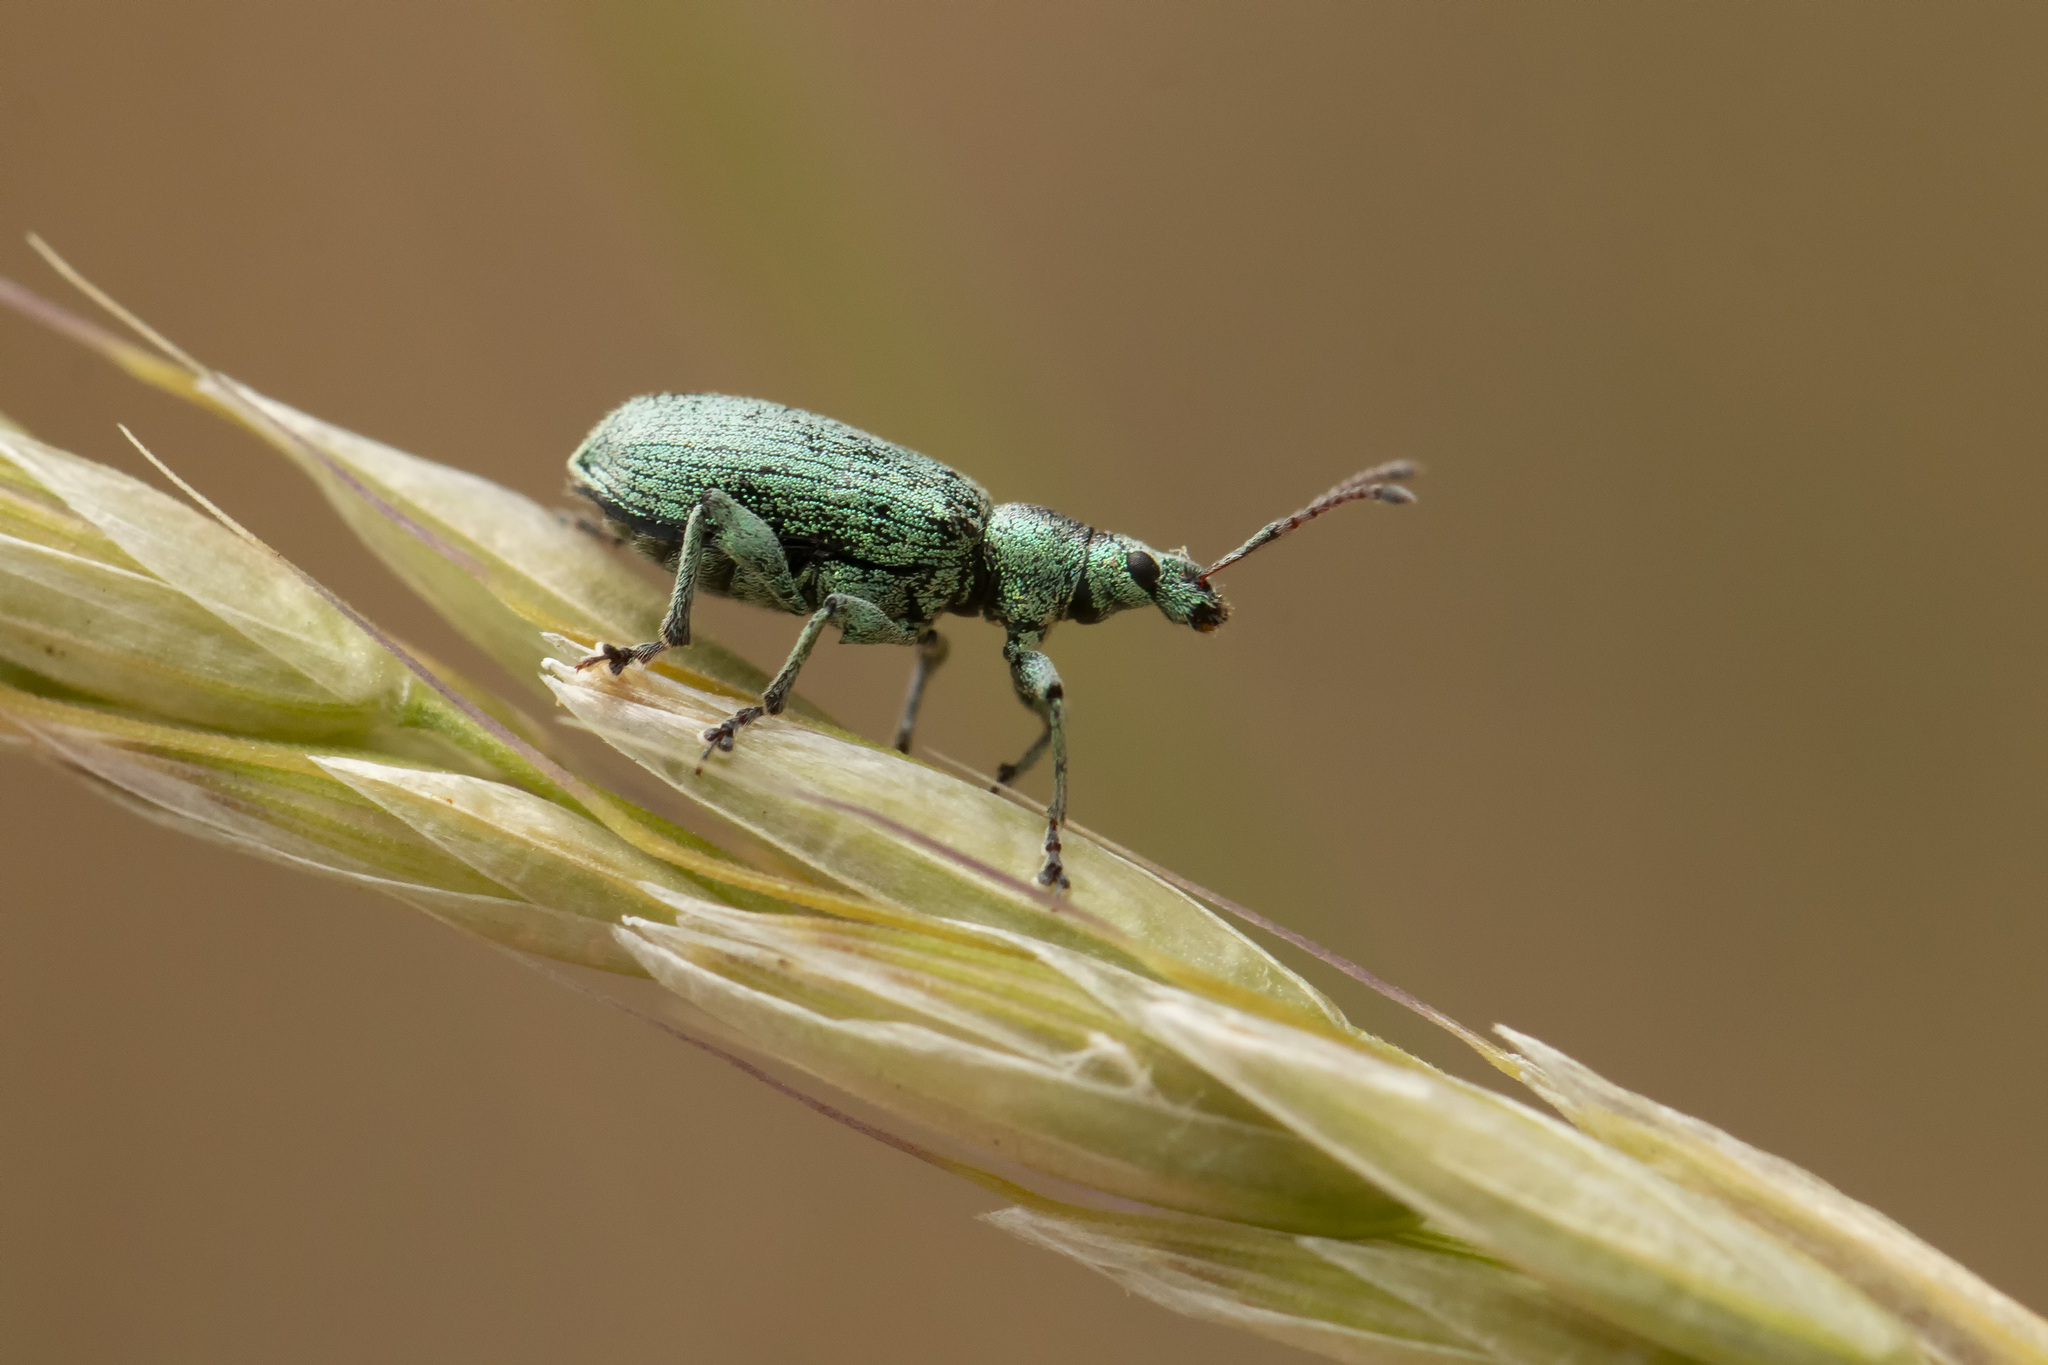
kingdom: Animalia
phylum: Arthropoda
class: Insecta
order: Coleoptera
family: Curculionidae
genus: Phyllobius
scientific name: Phyllobius maculicornis
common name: Green leaf weevil
